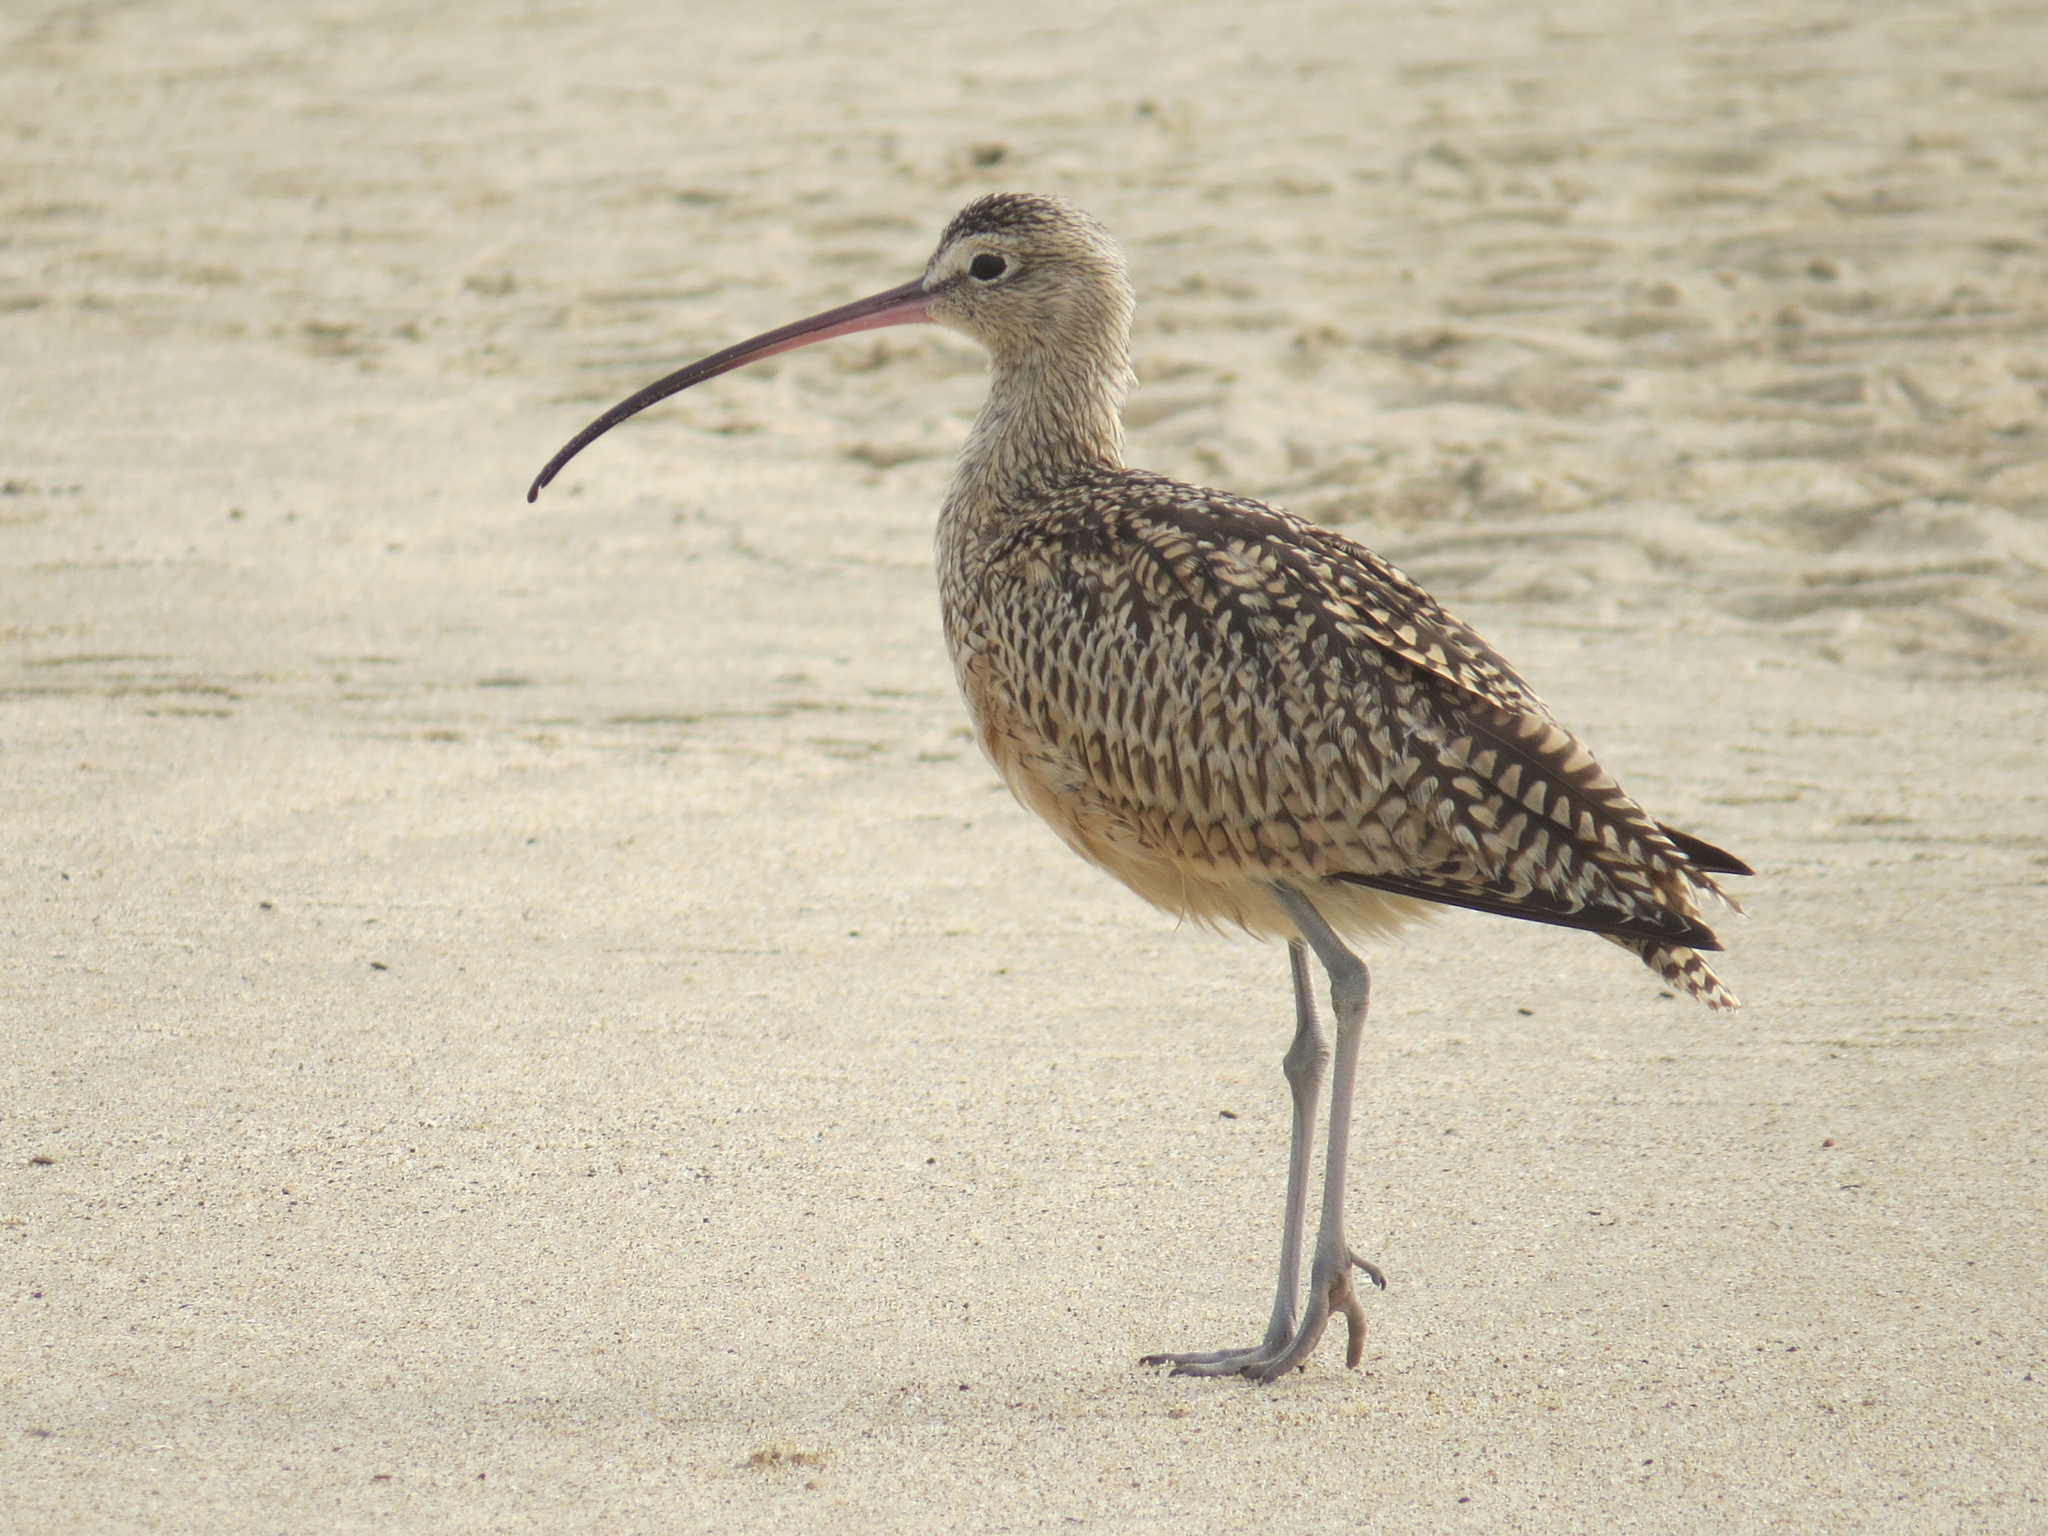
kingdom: Animalia
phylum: Chordata
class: Aves
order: Charadriiformes
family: Scolopacidae
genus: Numenius
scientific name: Numenius americanus
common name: Long-billed curlew
